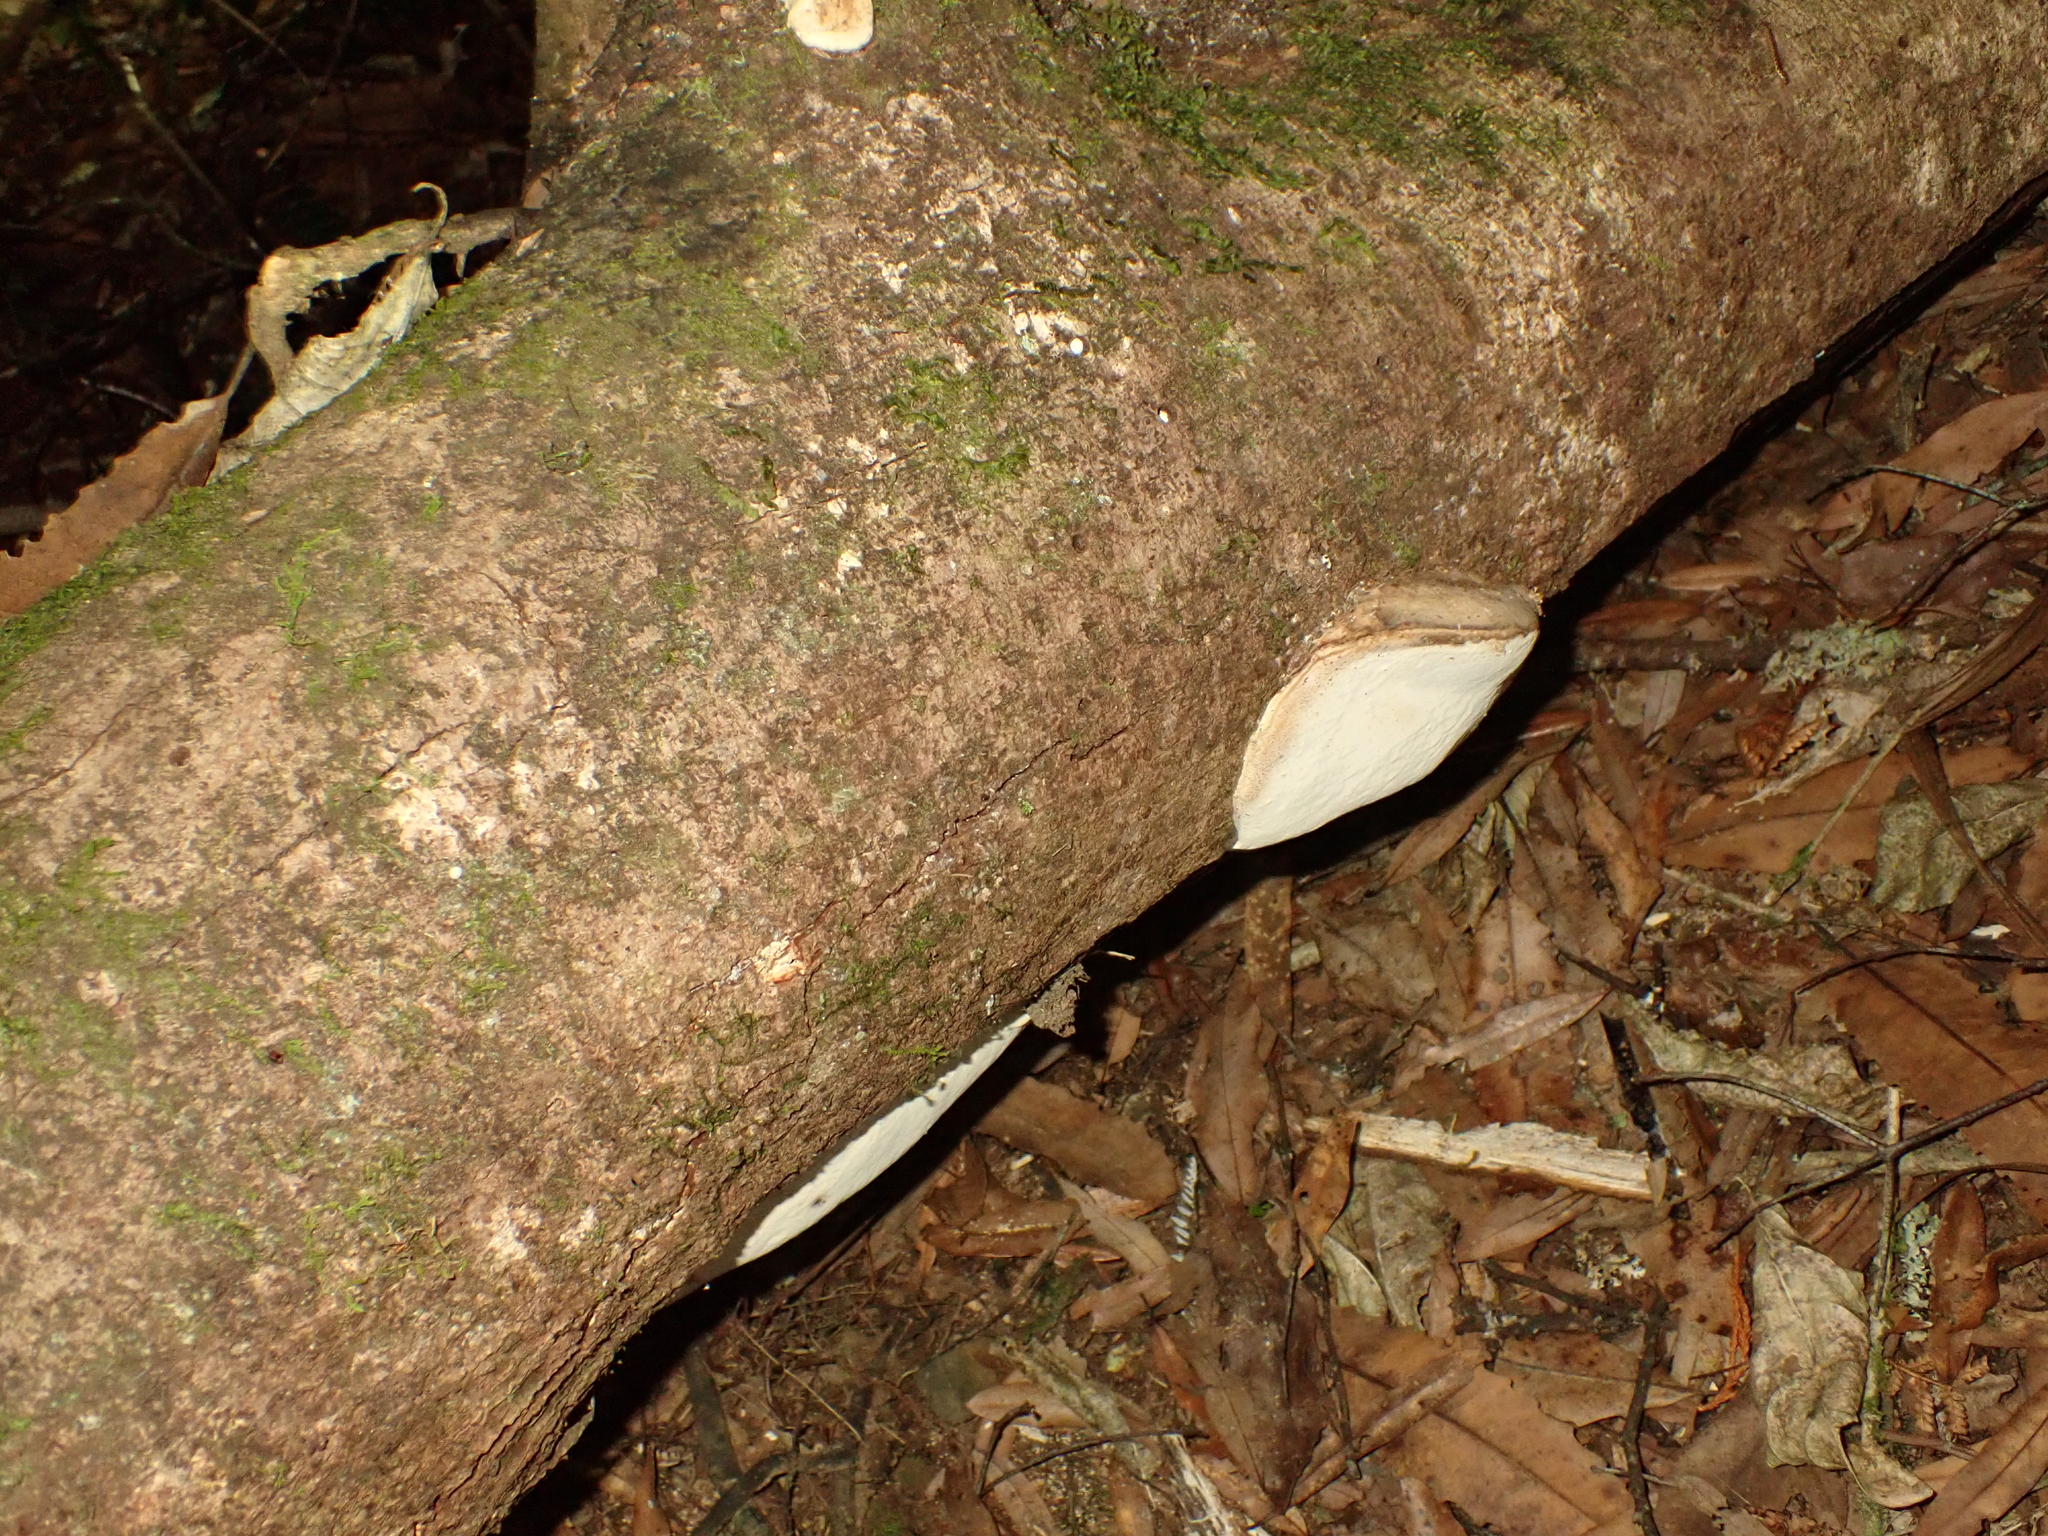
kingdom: Fungi
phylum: Basidiomycota
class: Agaricomycetes
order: Polyporales
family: Polyporaceae
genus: Ganoderma
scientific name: Ganoderma
